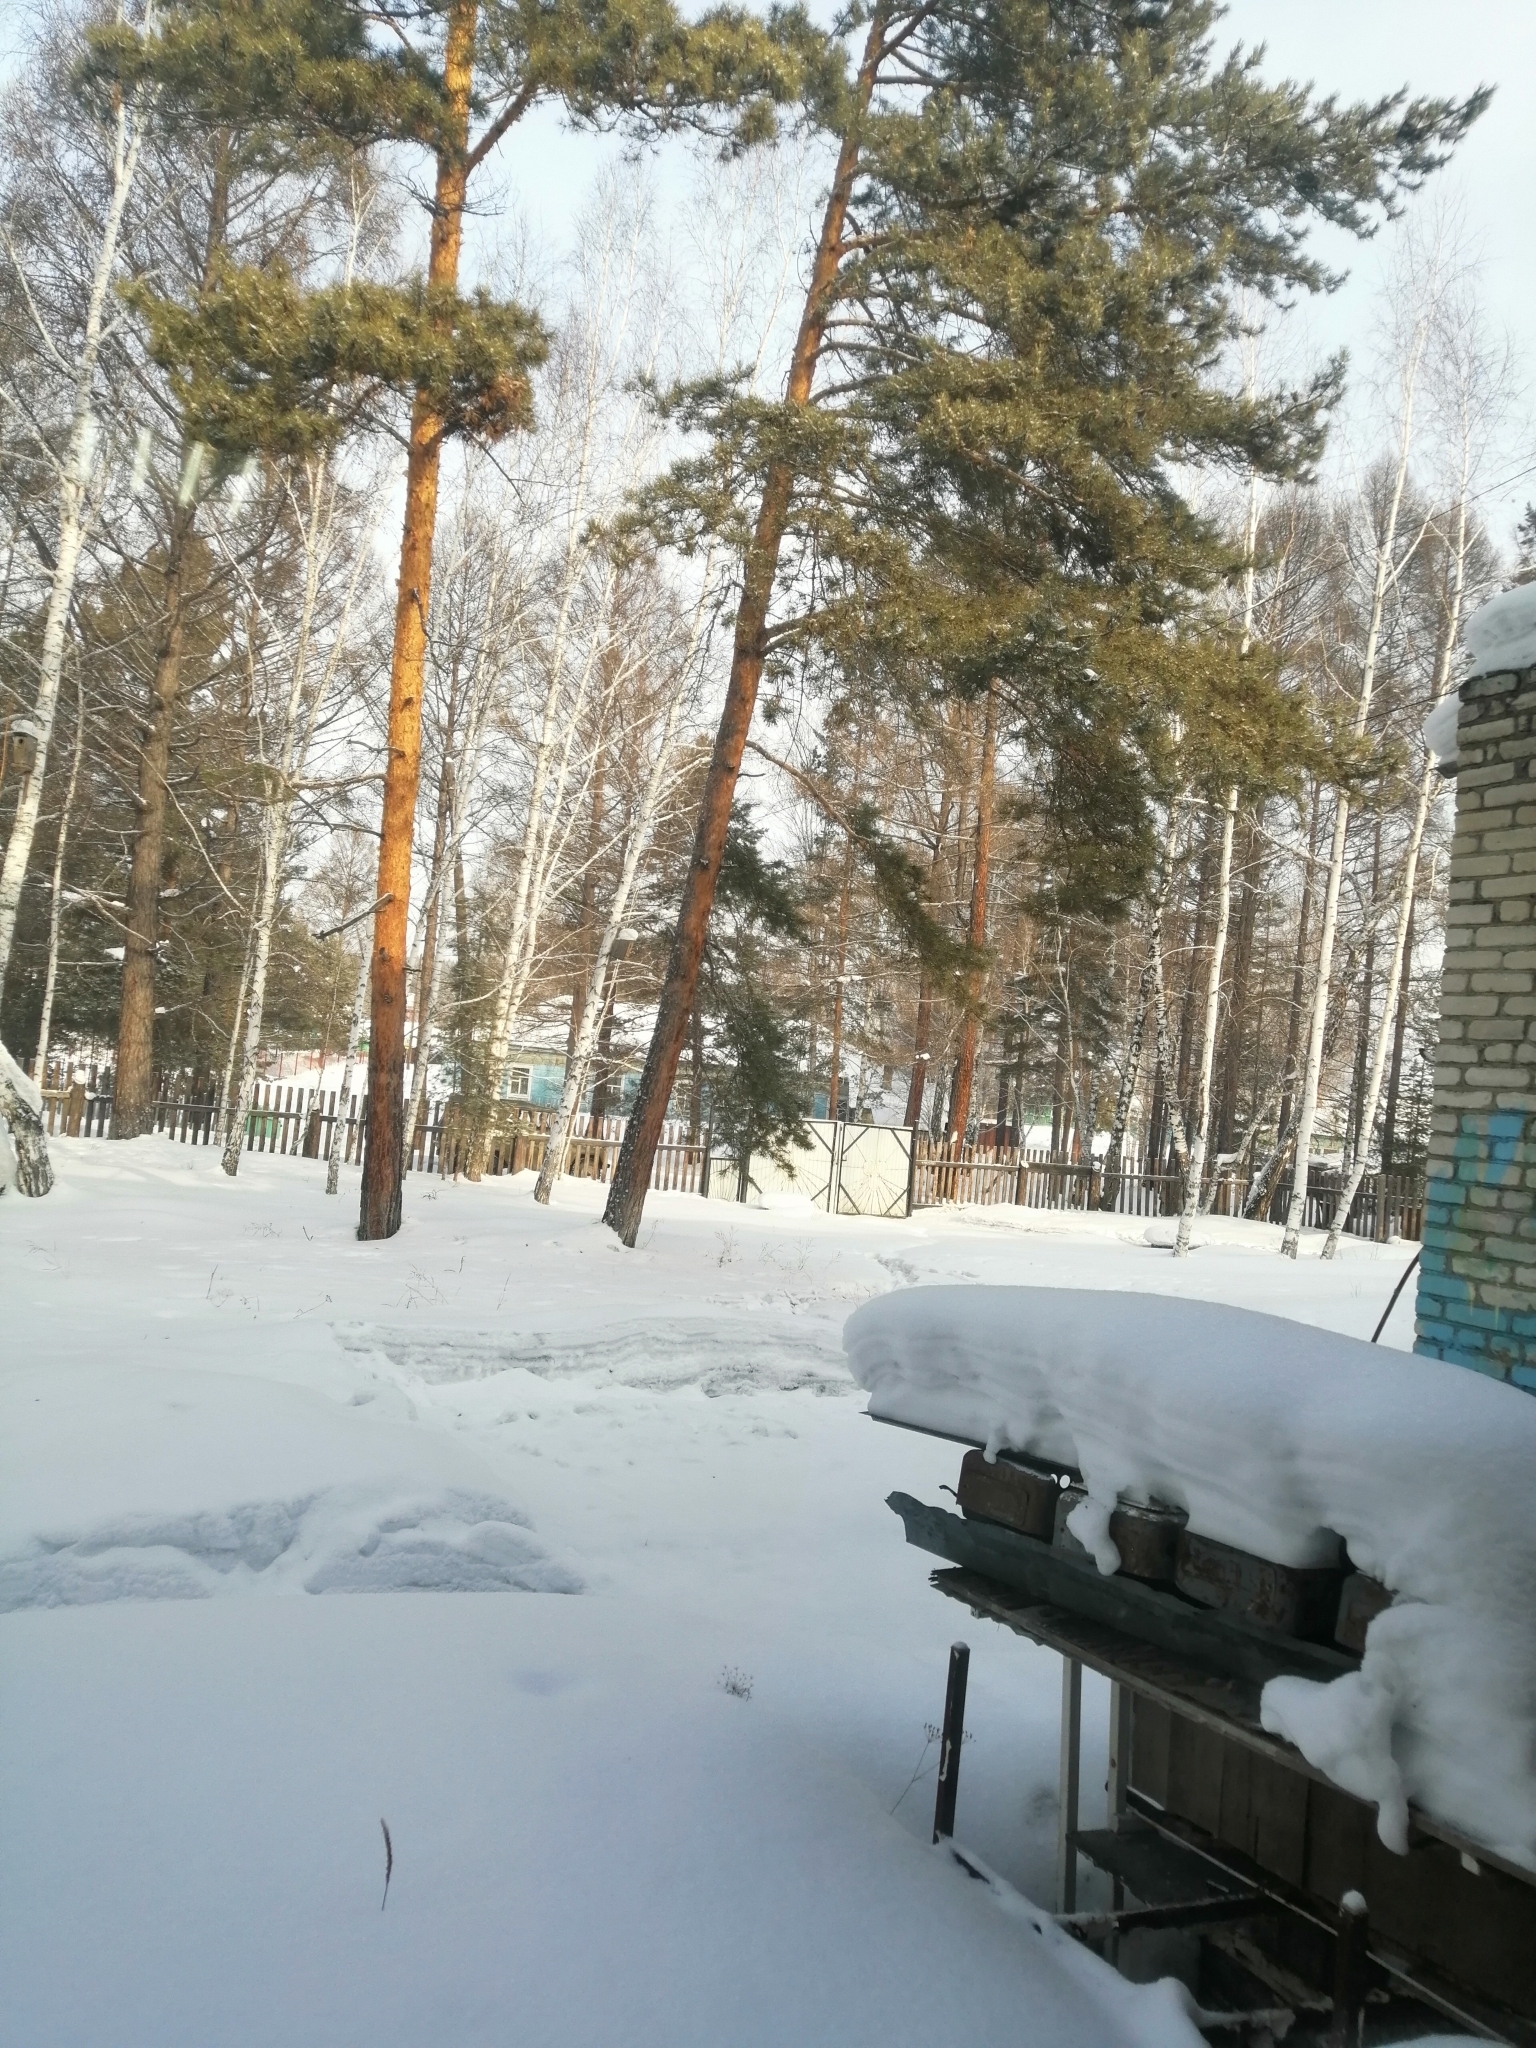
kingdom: Plantae
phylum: Tracheophyta
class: Pinopsida
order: Pinales
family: Pinaceae
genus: Pinus
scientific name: Pinus sylvestris
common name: Scots pine
